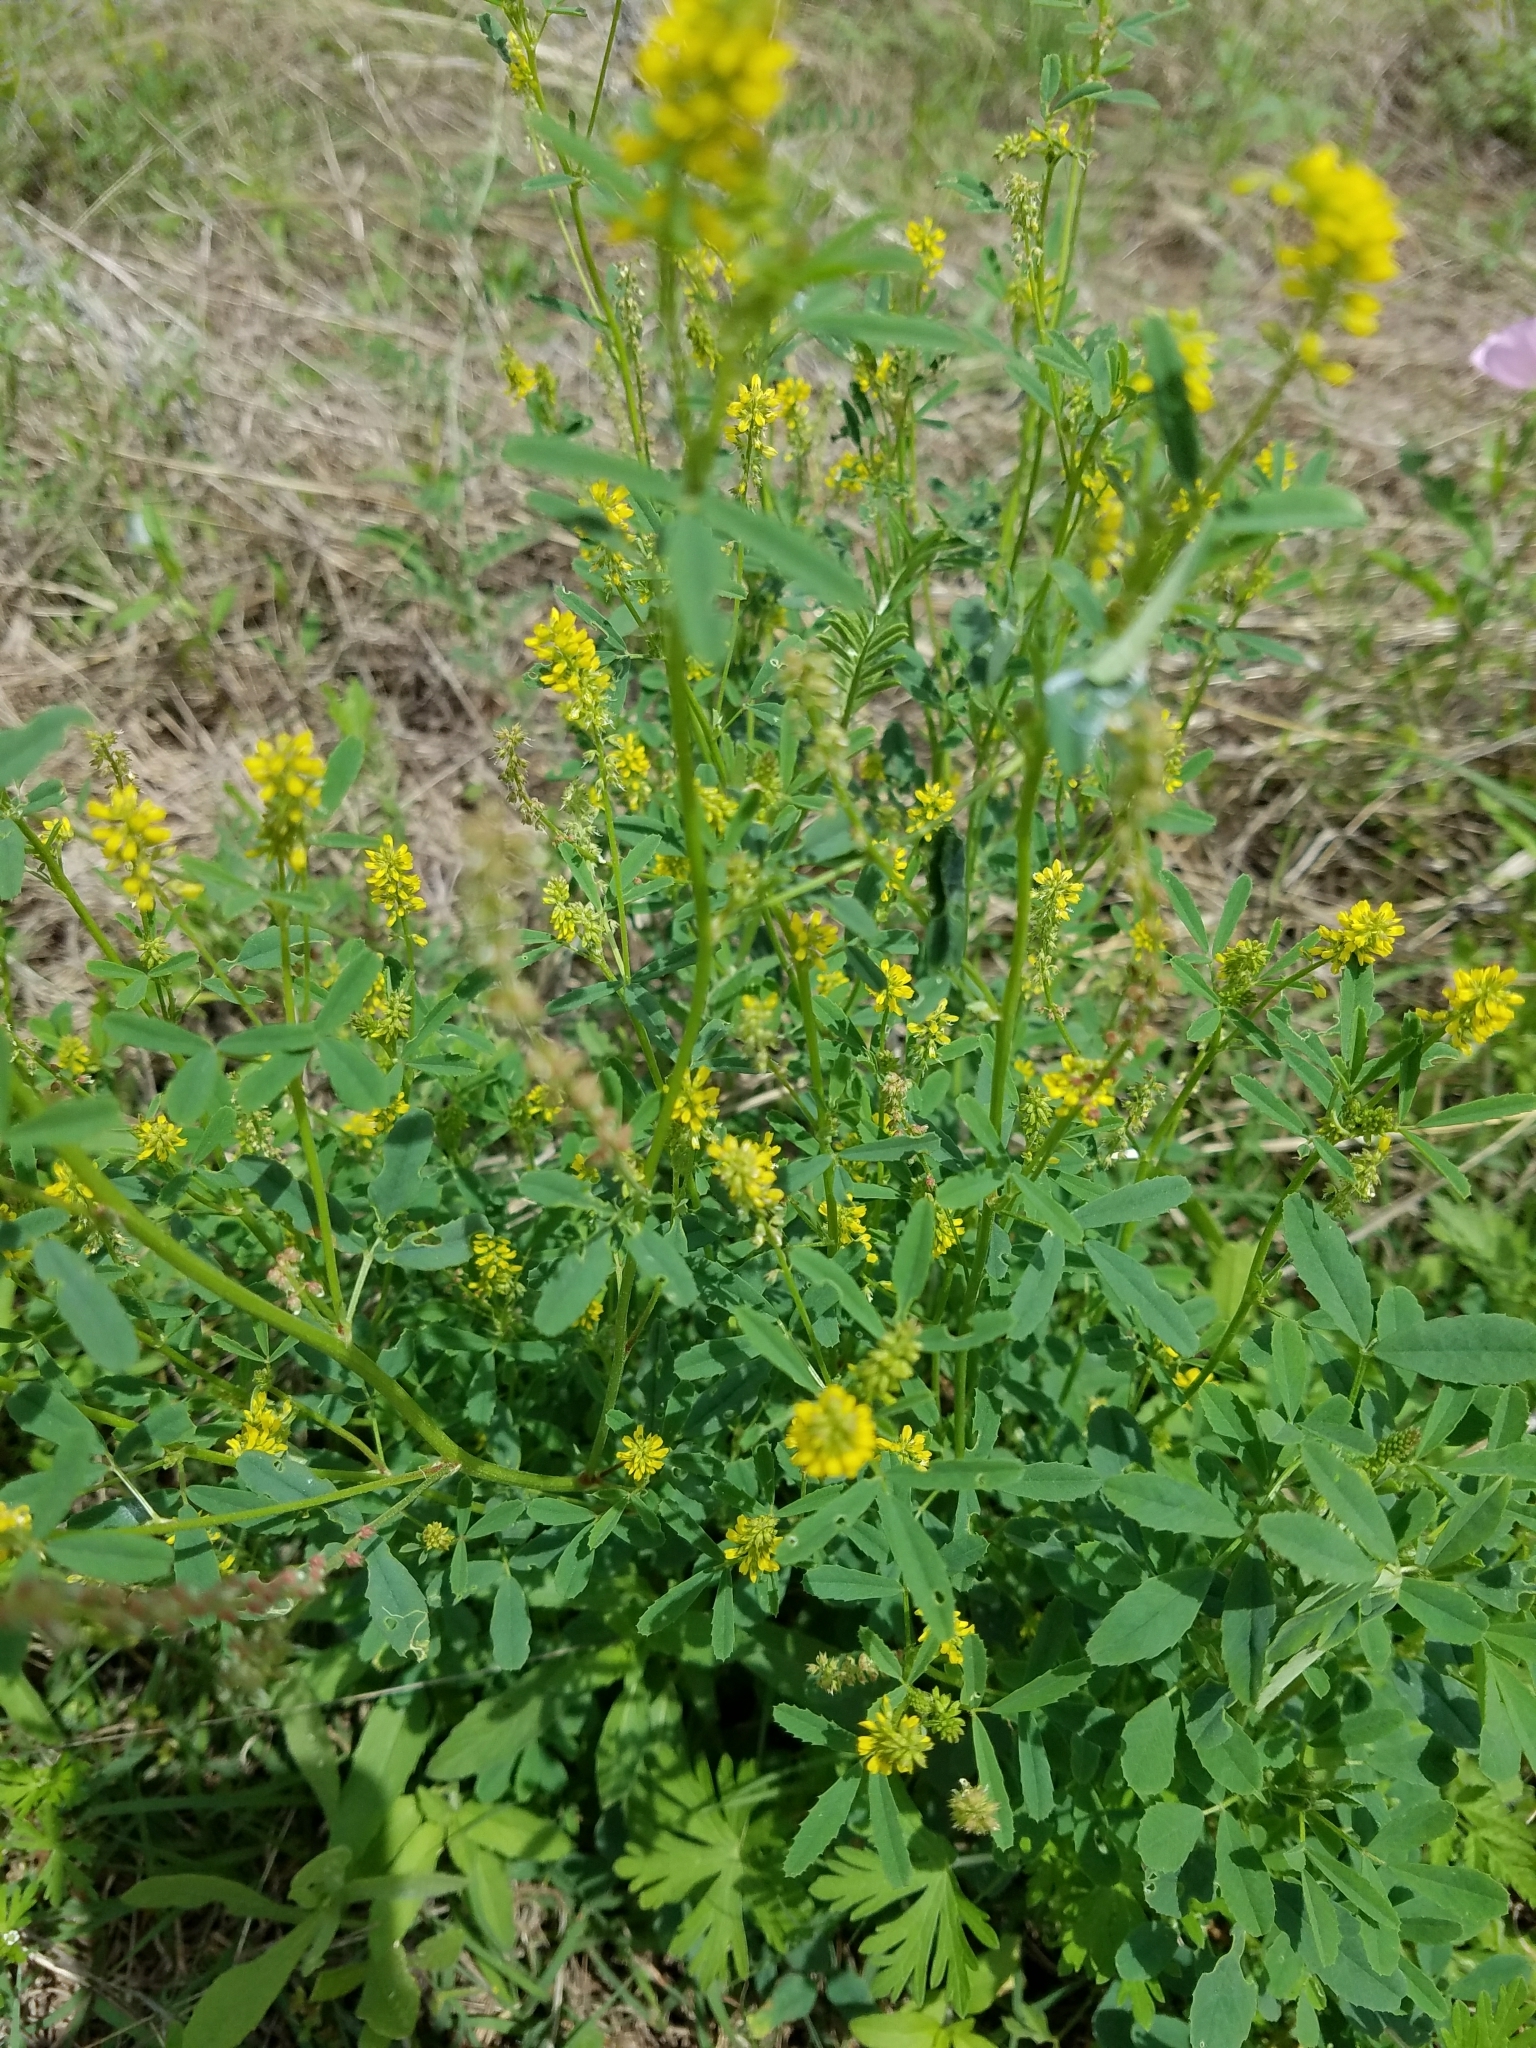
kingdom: Plantae
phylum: Tracheophyta
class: Magnoliopsida
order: Fabales
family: Fabaceae
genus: Melilotus
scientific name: Melilotus indicus
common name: Small melilot
